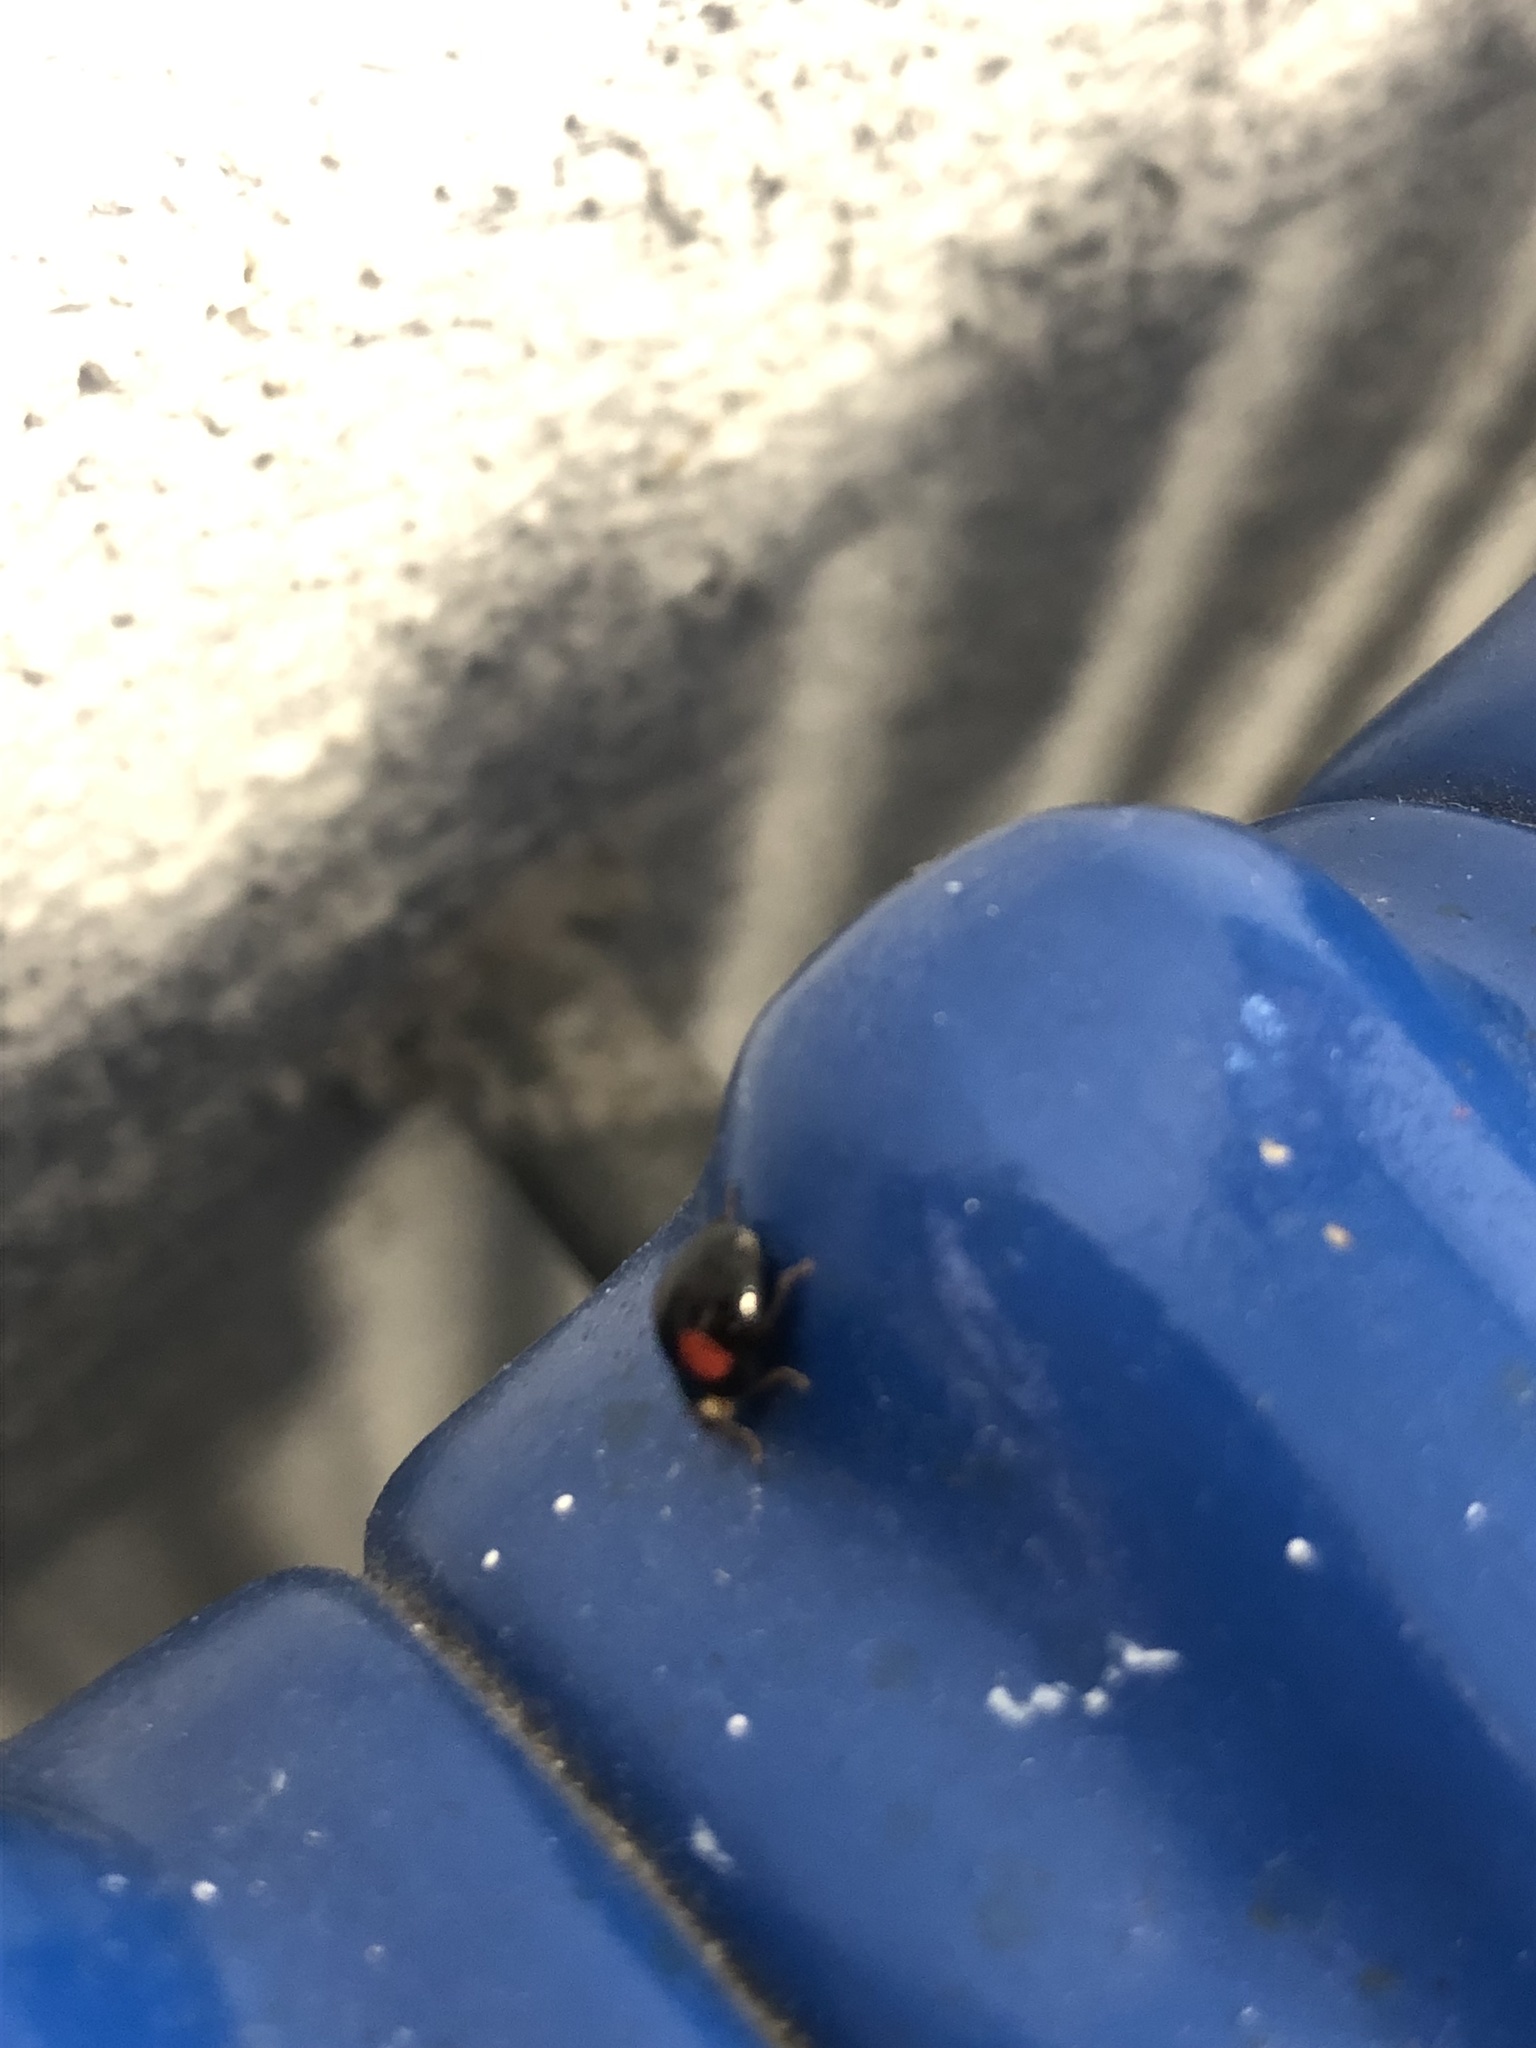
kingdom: Animalia
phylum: Arthropoda
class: Insecta
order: Coleoptera
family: Coccinellidae
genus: Harmonia
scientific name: Harmonia axyridis
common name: Harlequin ladybird
